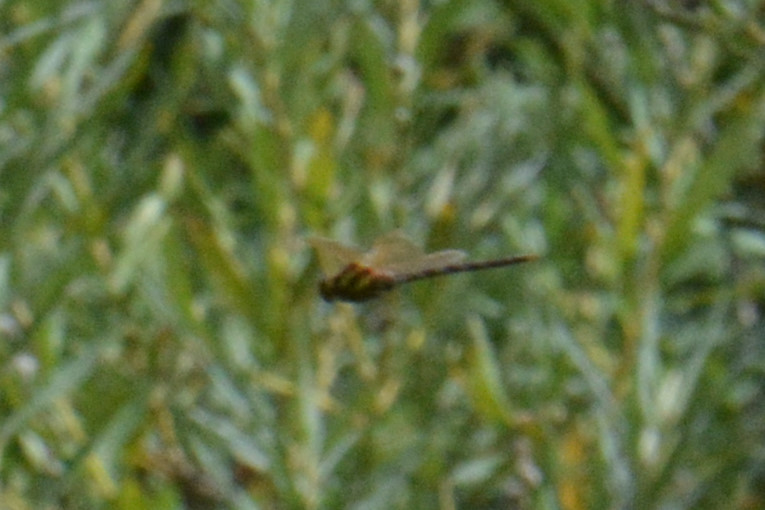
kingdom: Animalia
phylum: Arthropoda
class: Insecta
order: Odonata
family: Aeshnidae
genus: Aeshna
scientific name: Aeshna grandis
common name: Brown hawker
